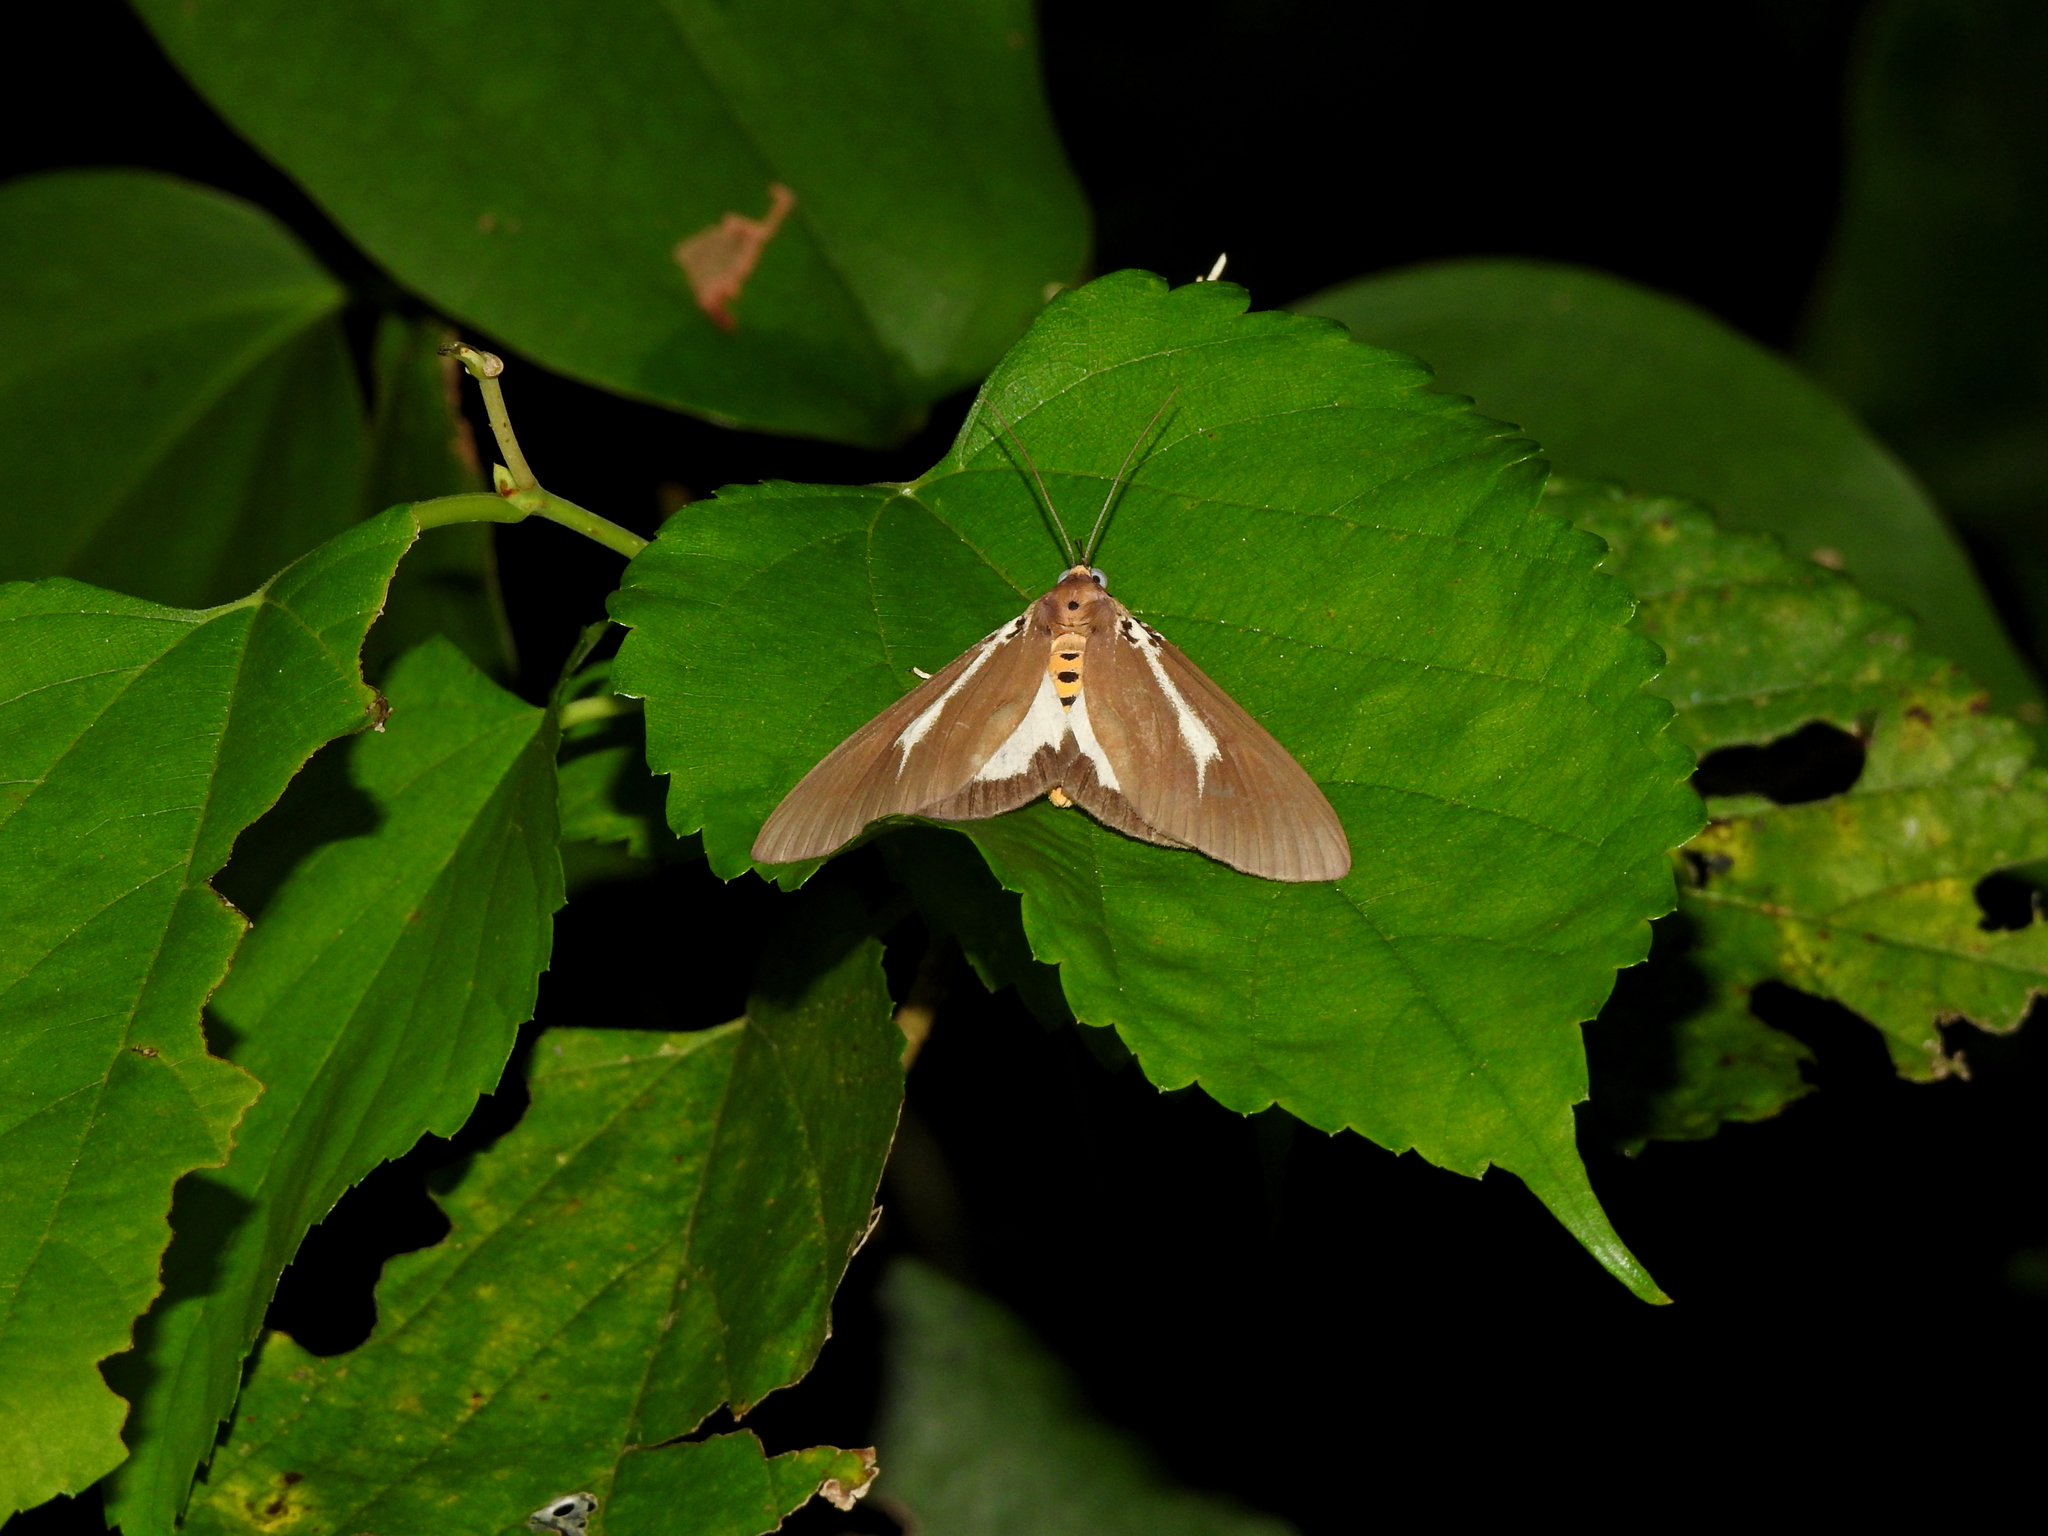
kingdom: Animalia
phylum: Arthropoda
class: Insecta
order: Lepidoptera
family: Erebidae
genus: Asota
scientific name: Asota heliconia
